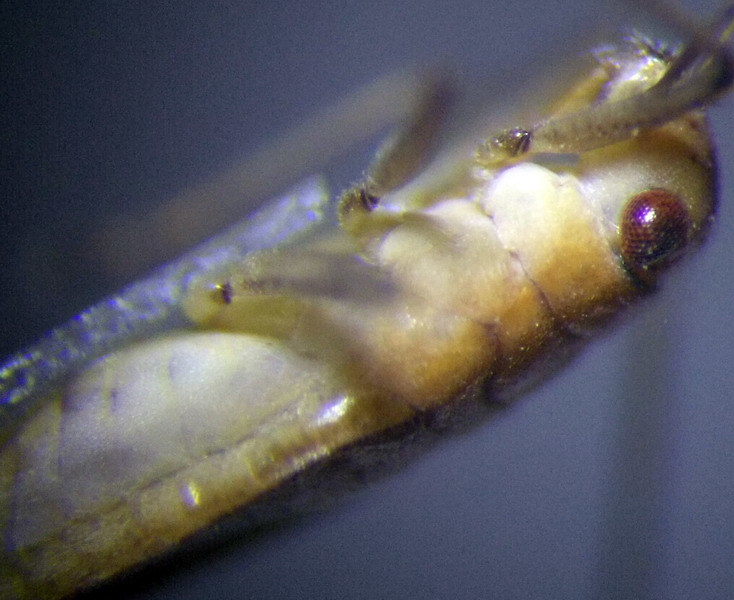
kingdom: Animalia
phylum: Arthropoda
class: Insecta
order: Hemiptera
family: Mesoveliidae
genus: Mesovelia
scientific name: Mesovelia furcata
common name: Pondweed bug
